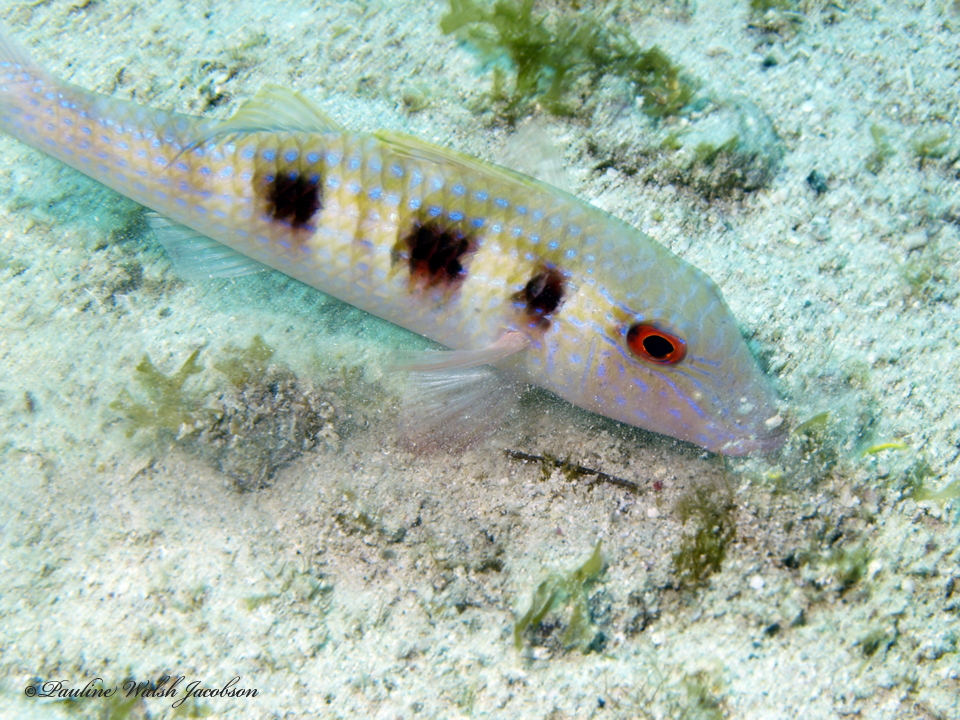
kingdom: Animalia
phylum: Chordata
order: Perciformes
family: Mullidae
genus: Pseudupeneus
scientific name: Pseudupeneus maculatus
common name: Spotted goatfish
